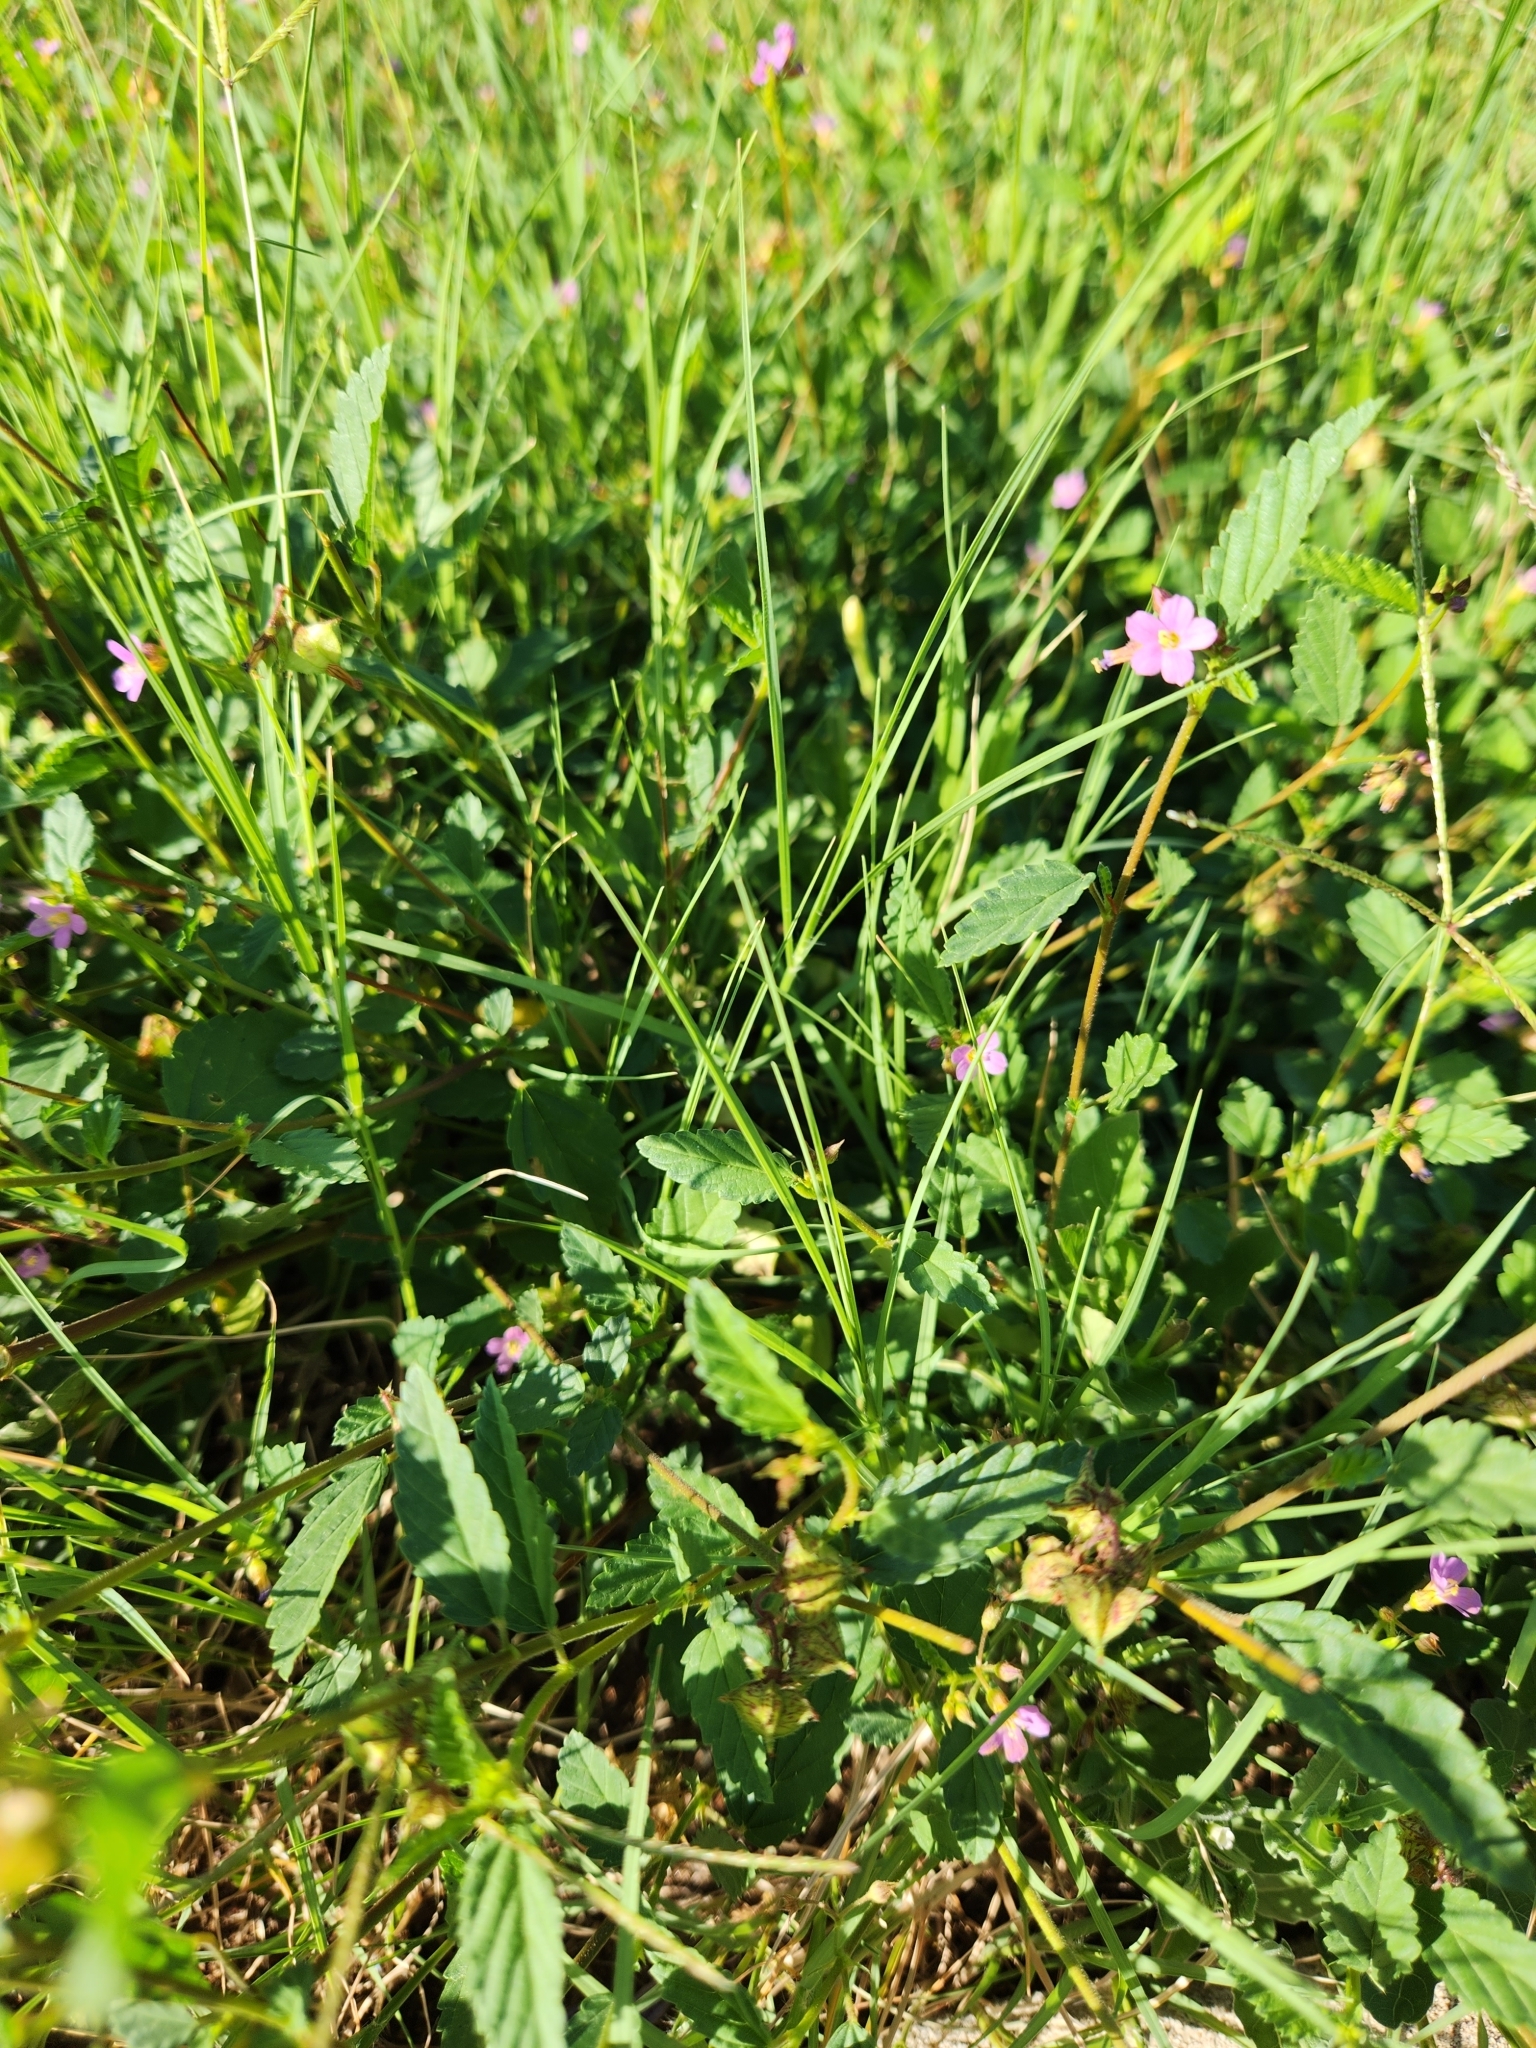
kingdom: Plantae
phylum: Tracheophyta
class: Magnoliopsida
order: Malvales
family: Malvaceae
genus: Melochia
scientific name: Melochia pyramidata
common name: Pyramidflower
